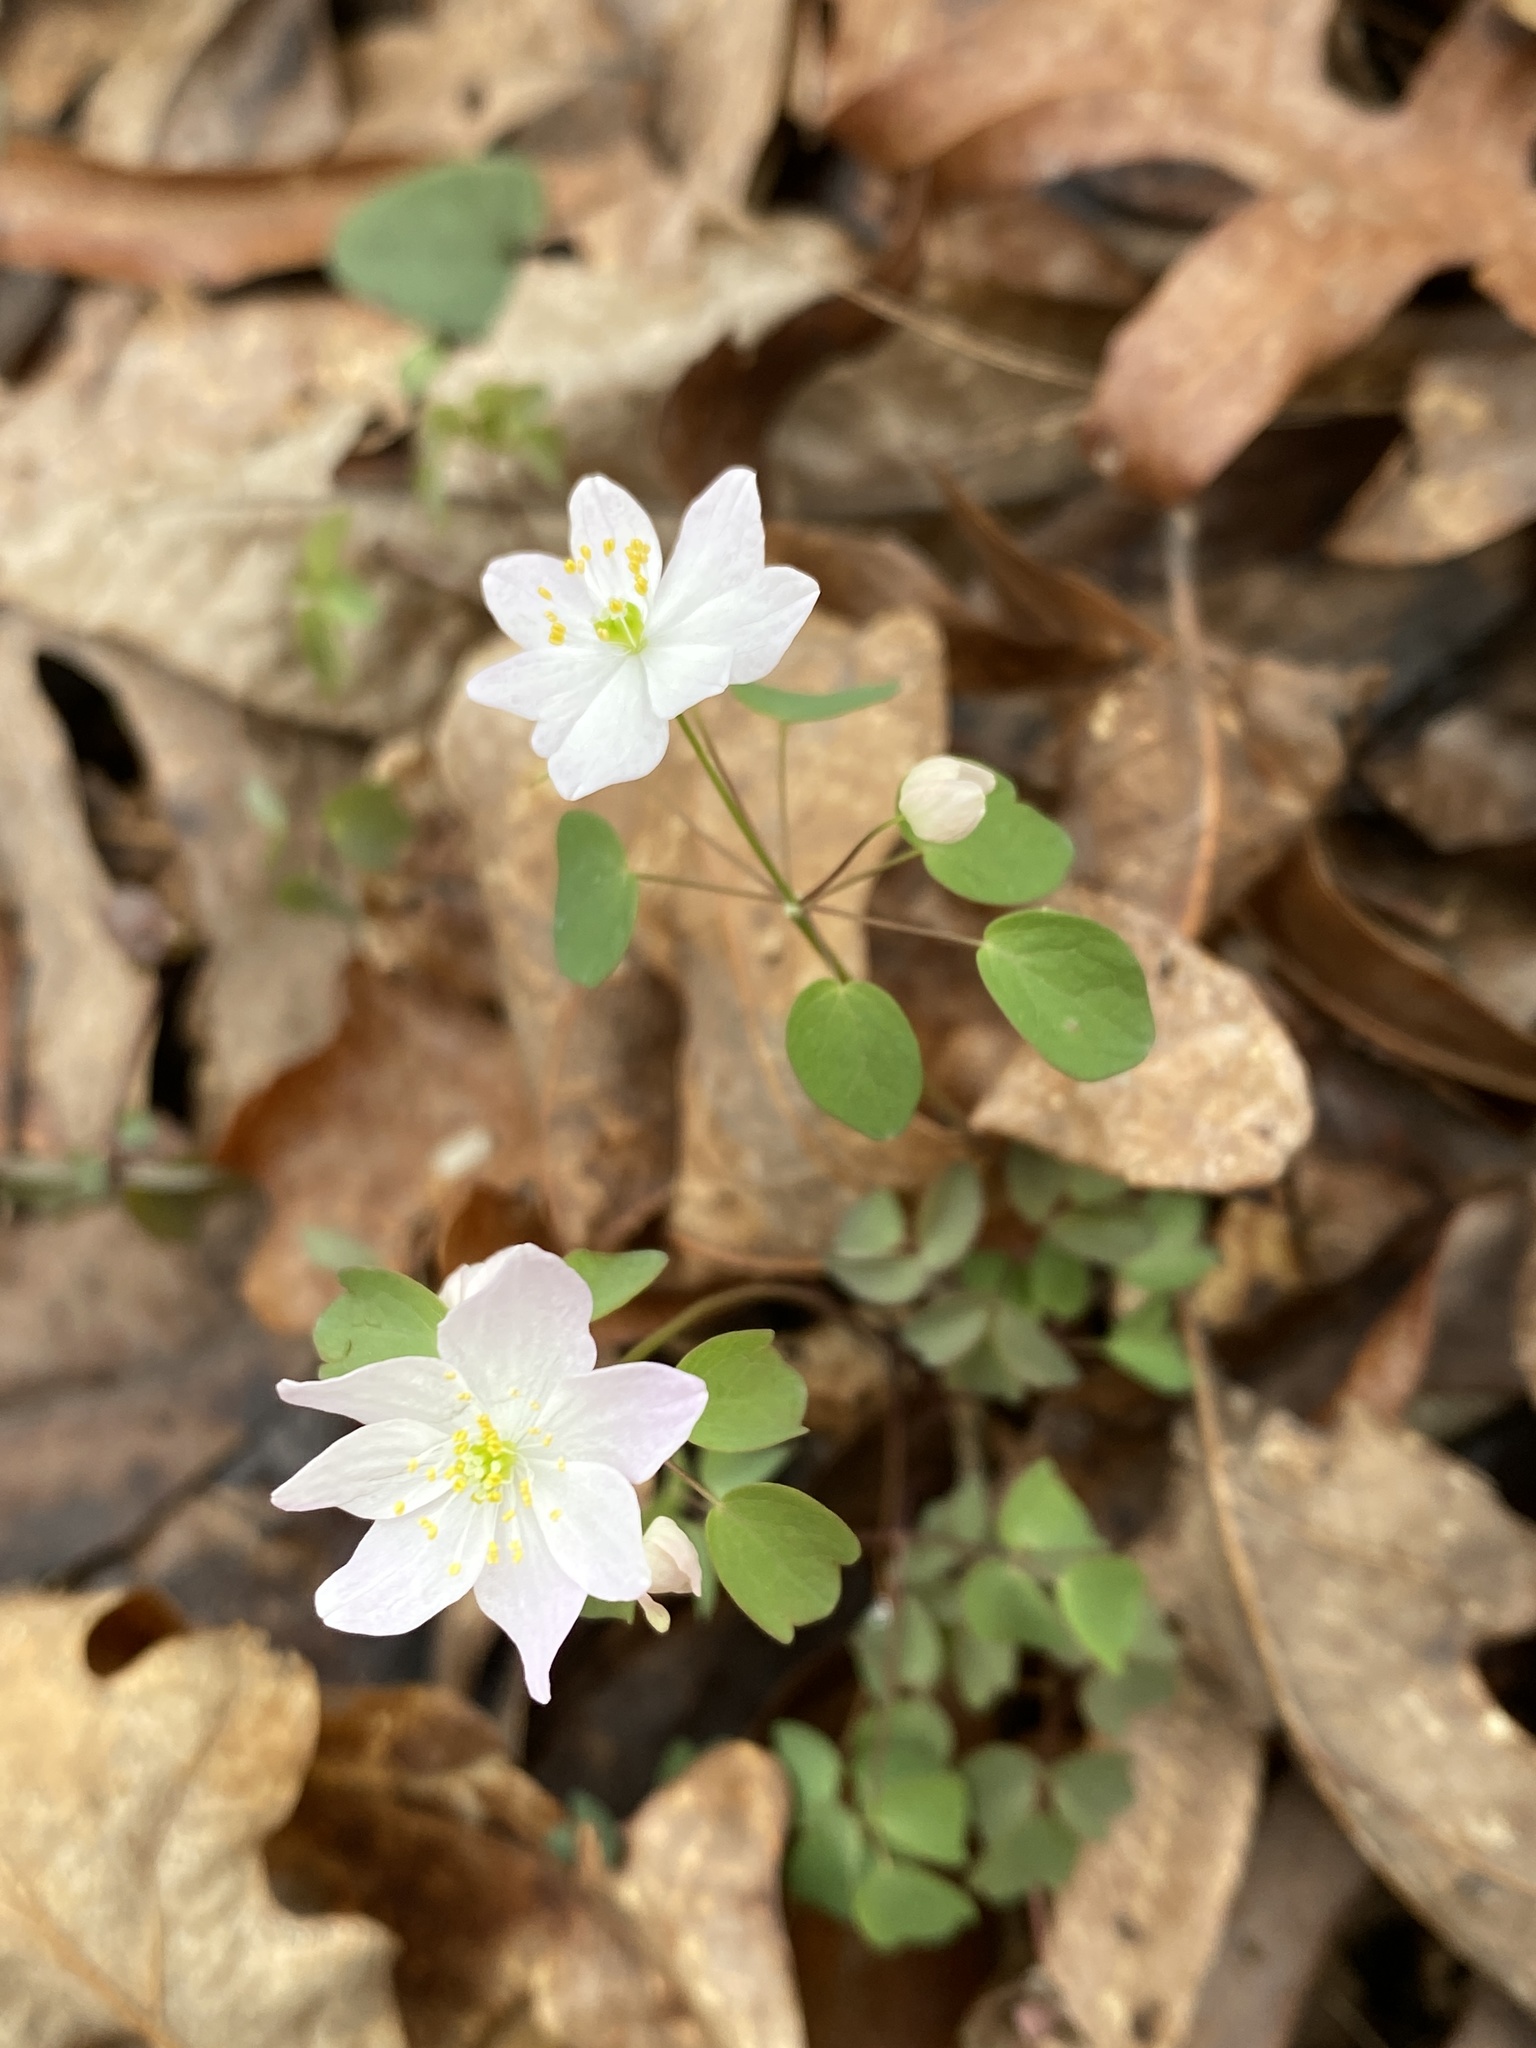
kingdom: Plantae
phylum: Tracheophyta
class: Magnoliopsida
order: Ranunculales
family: Ranunculaceae
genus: Thalictrum
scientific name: Thalictrum thalictroides
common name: Rue-anemone
